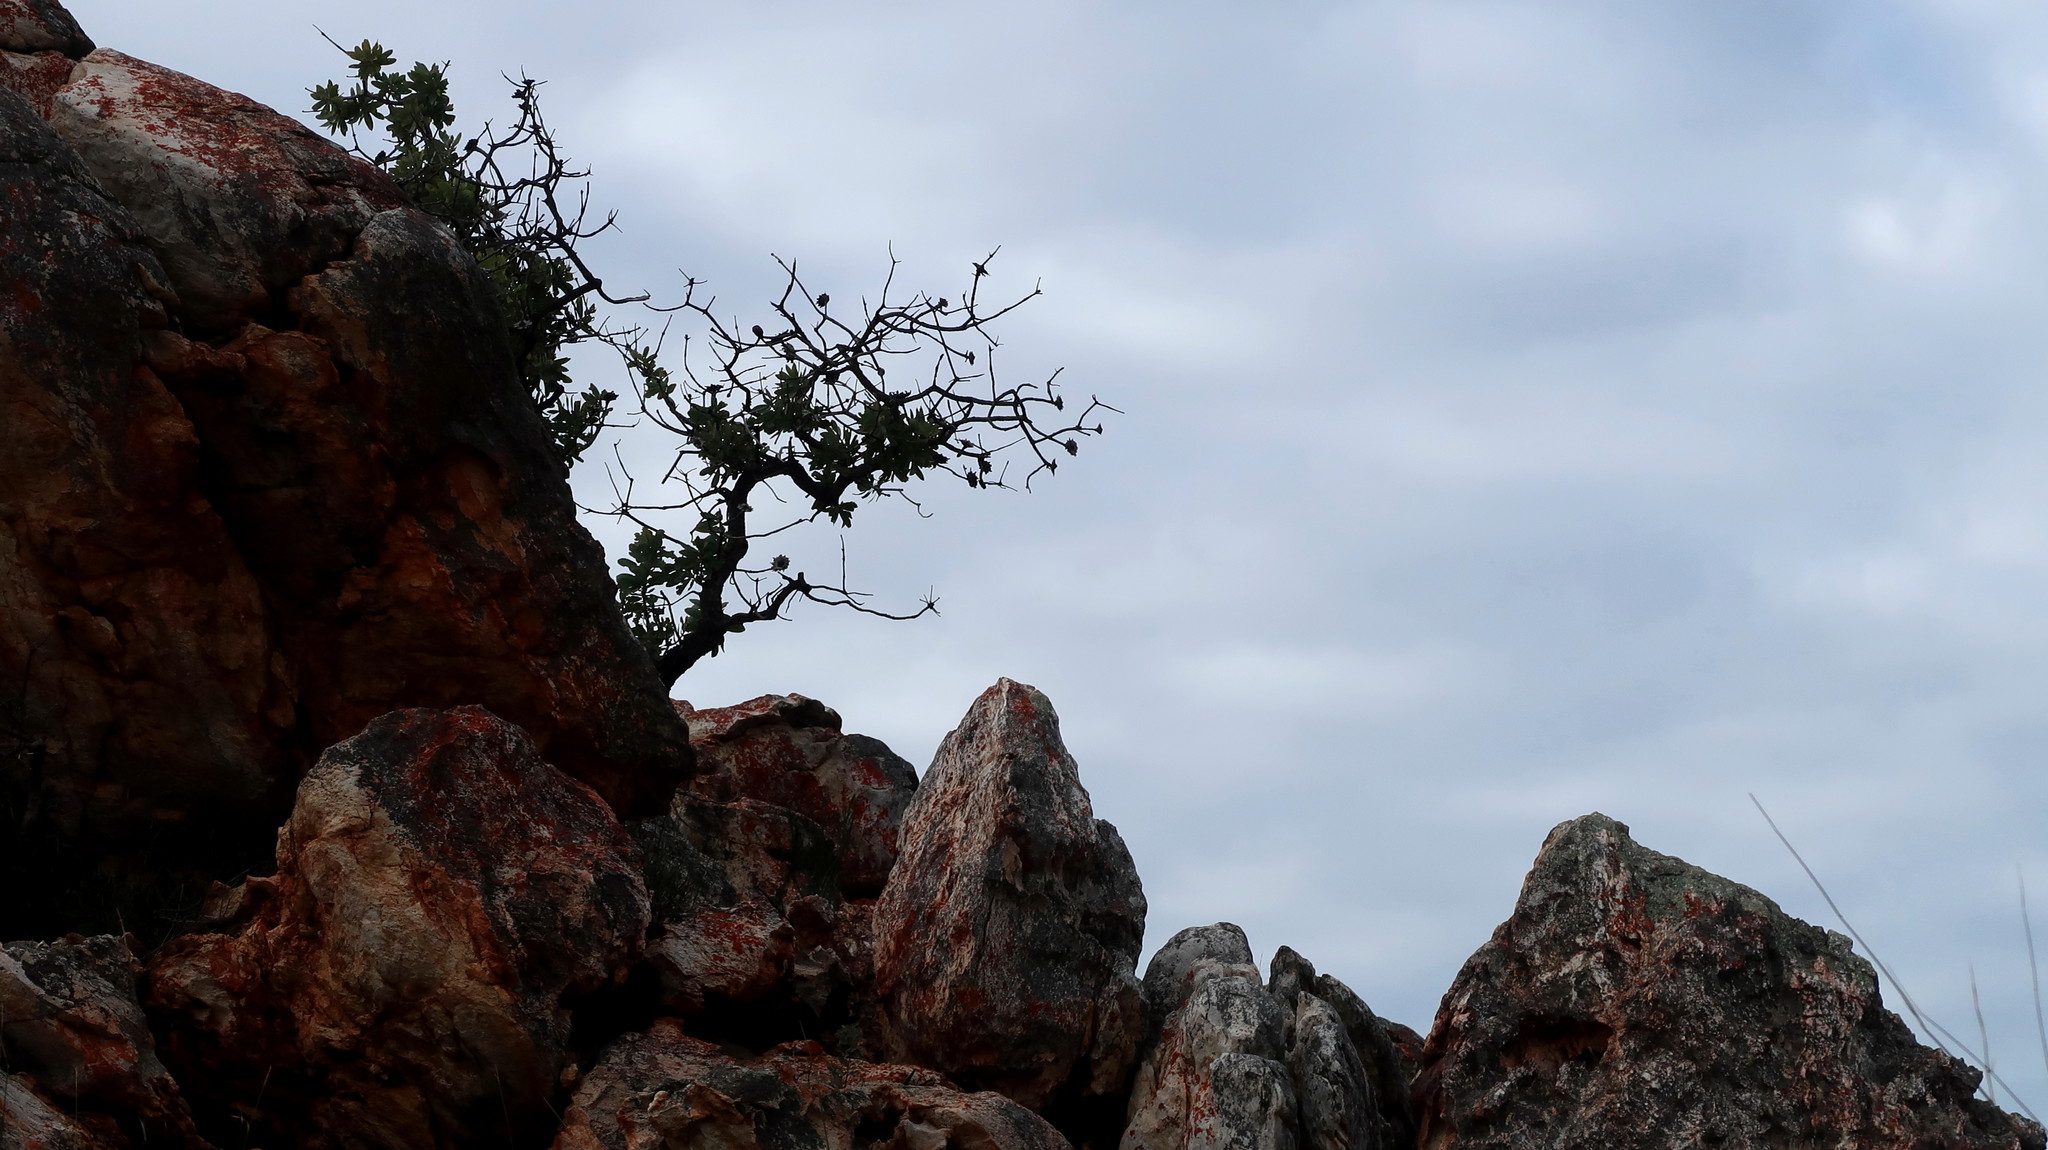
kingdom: Plantae
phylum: Tracheophyta
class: Magnoliopsida
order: Proteales
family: Proteaceae
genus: Protea
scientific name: Protea nitida
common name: Tree protea
